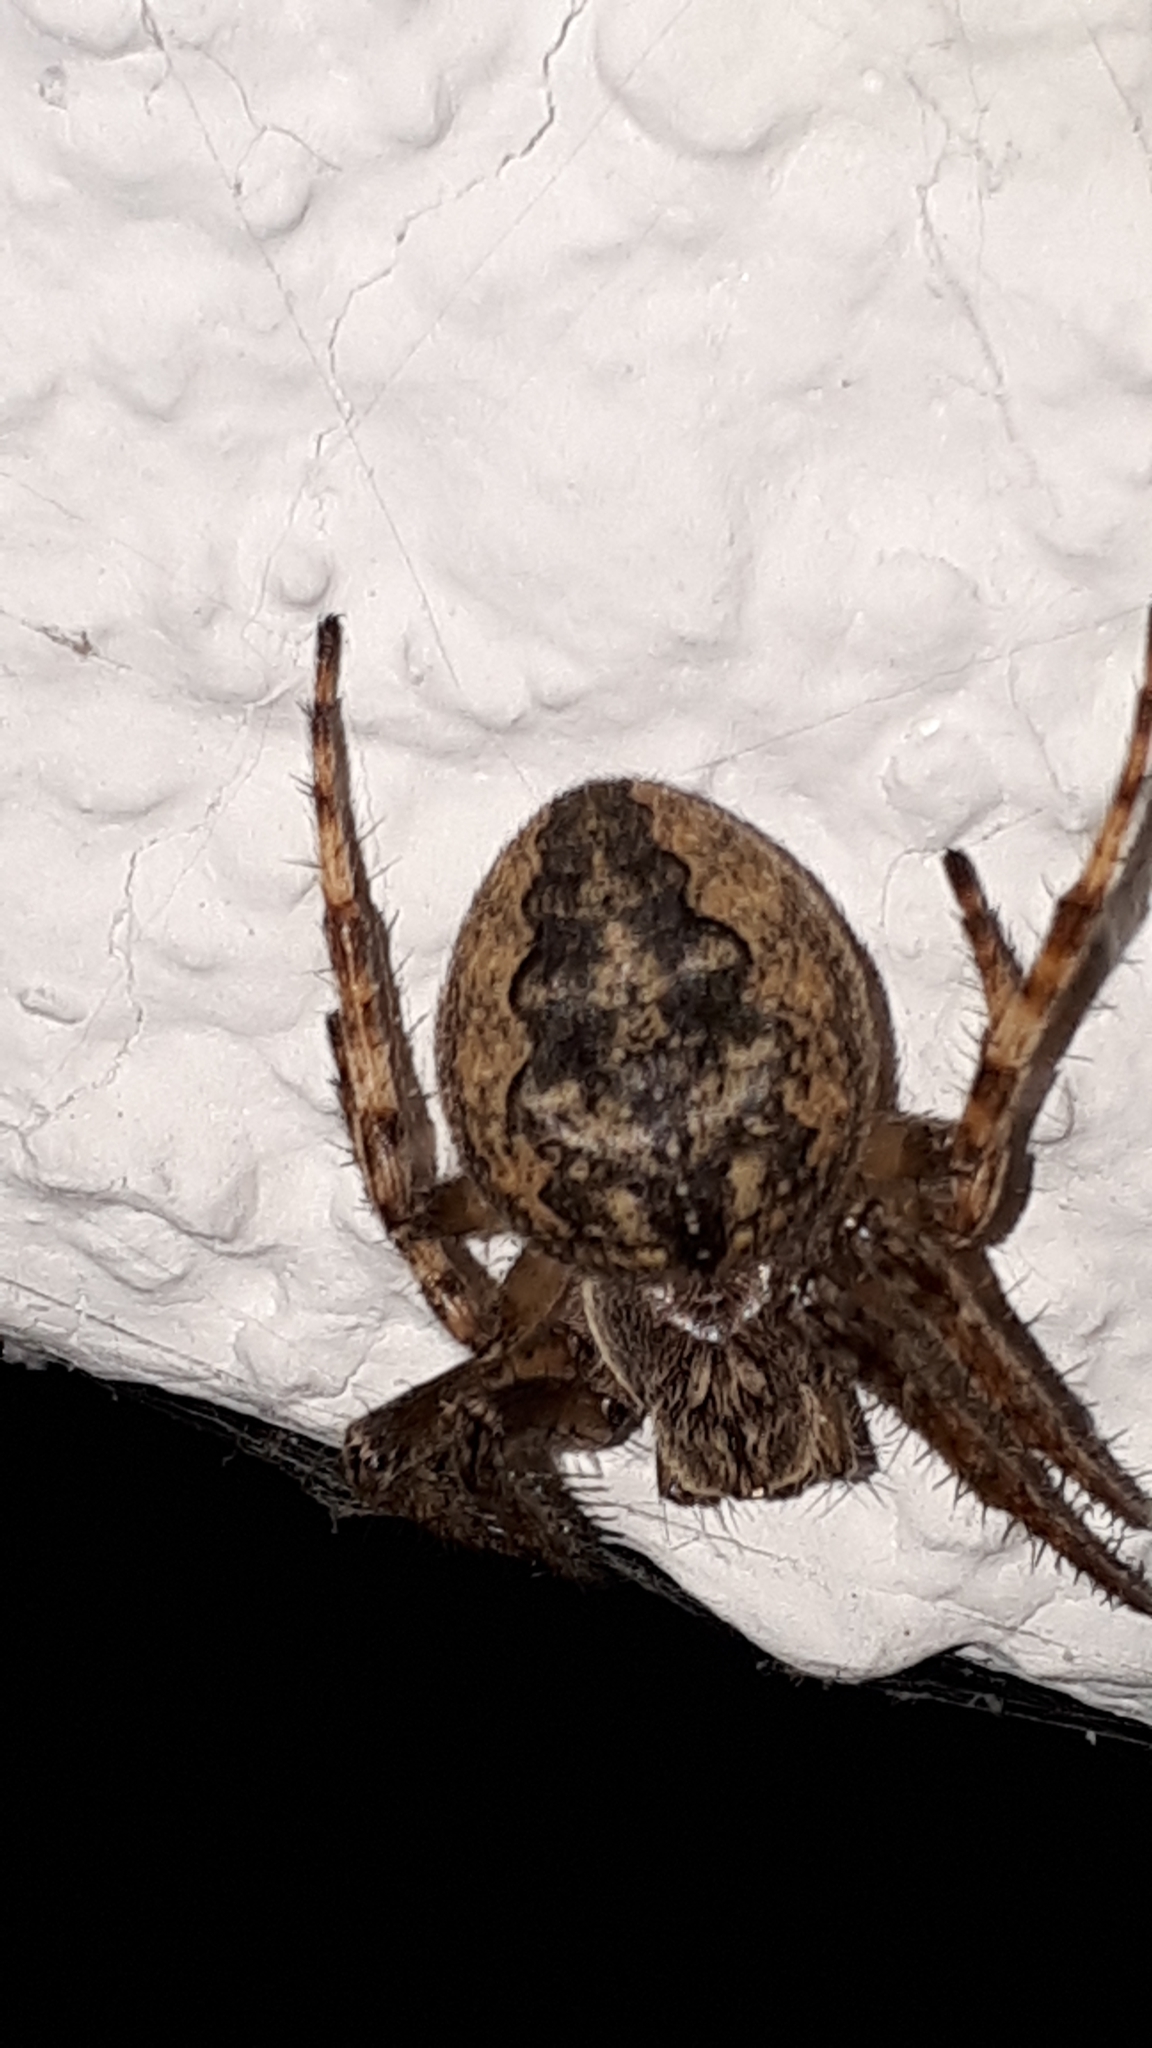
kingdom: Animalia
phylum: Arthropoda
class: Arachnida
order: Araneae
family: Araneidae
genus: Larinioides
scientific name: Larinioides ixobolus
